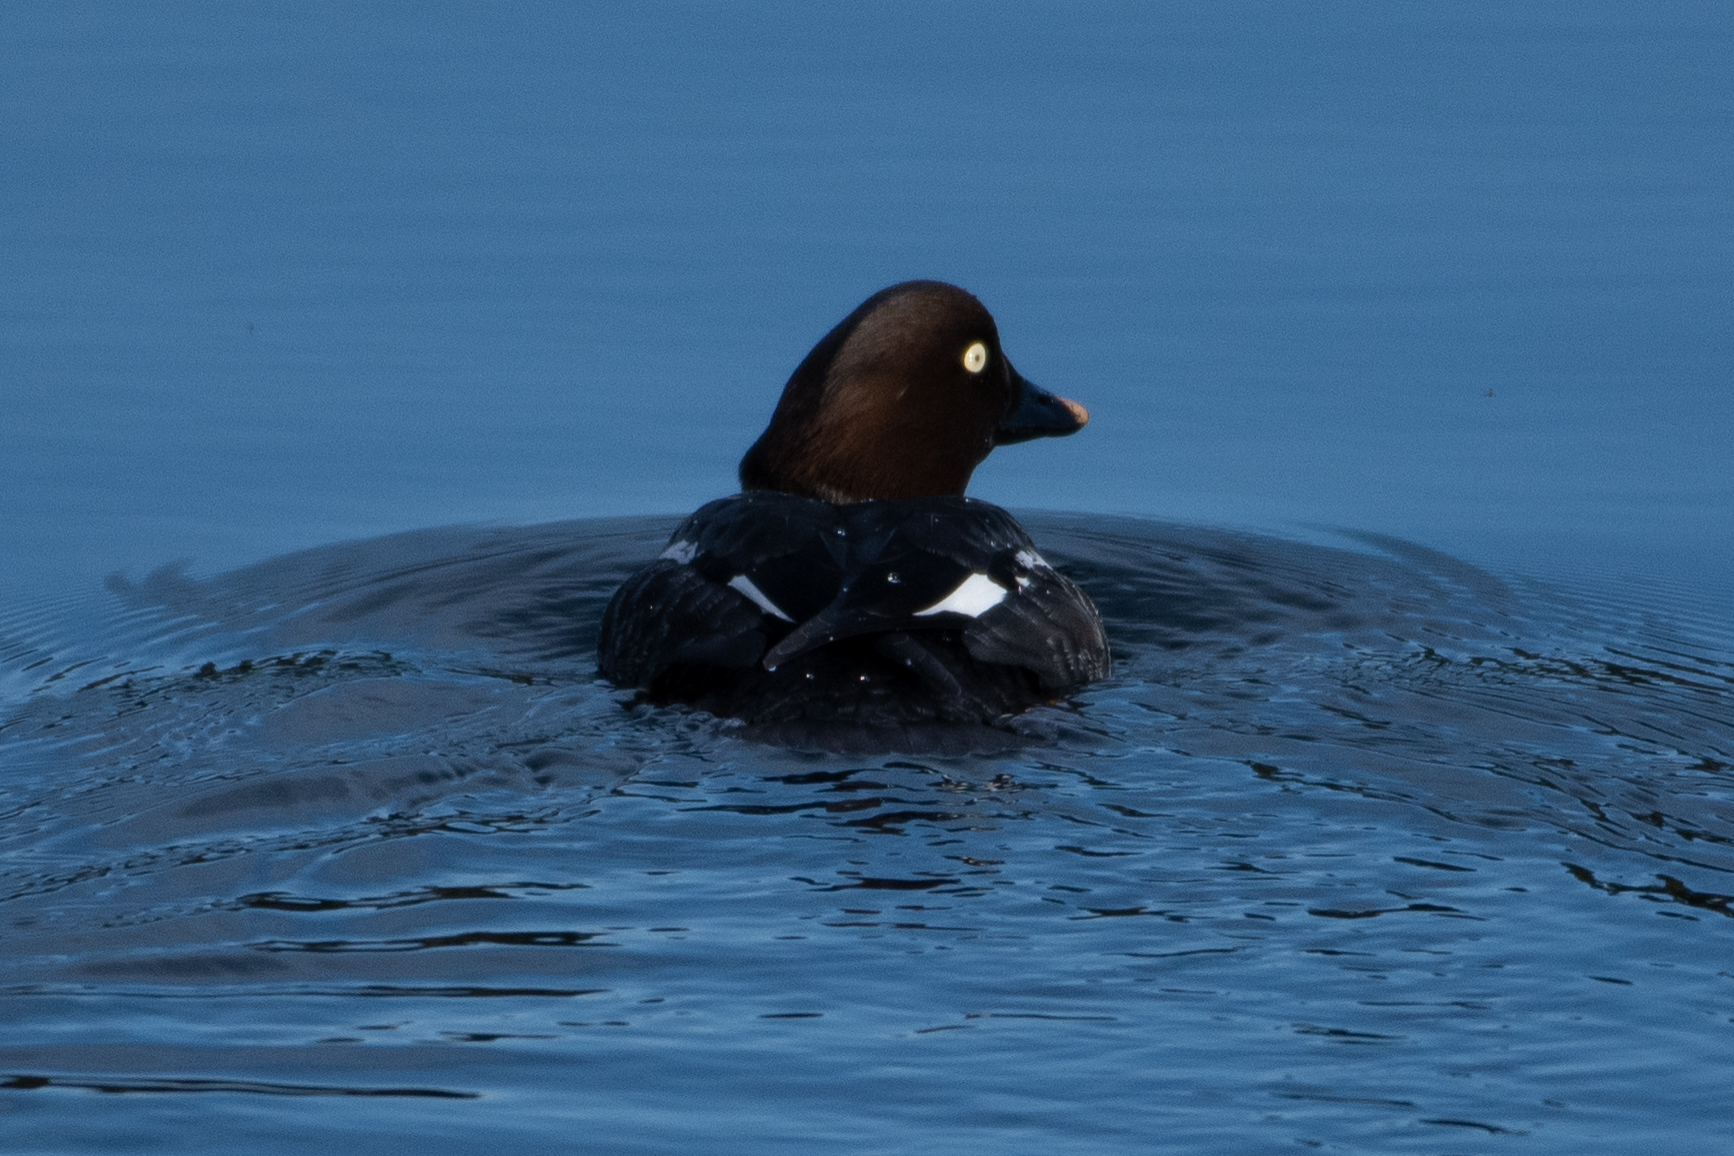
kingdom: Animalia
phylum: Chordata
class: Aves
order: Anseriformes
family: Anatidae
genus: Bucephala
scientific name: Bucephala clangula
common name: Common goldeneye
